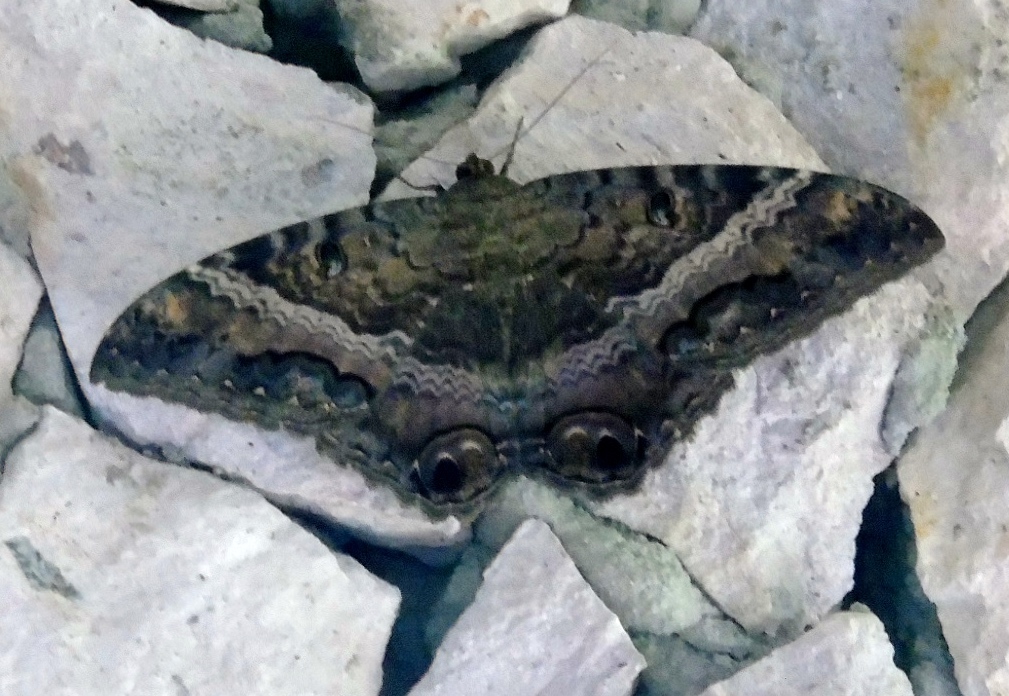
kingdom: Animalia
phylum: Arthropoda
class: Insecta
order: Lepidoptera
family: Erebidae
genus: Ascalapha
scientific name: Ascalapha odorata
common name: Black witch
